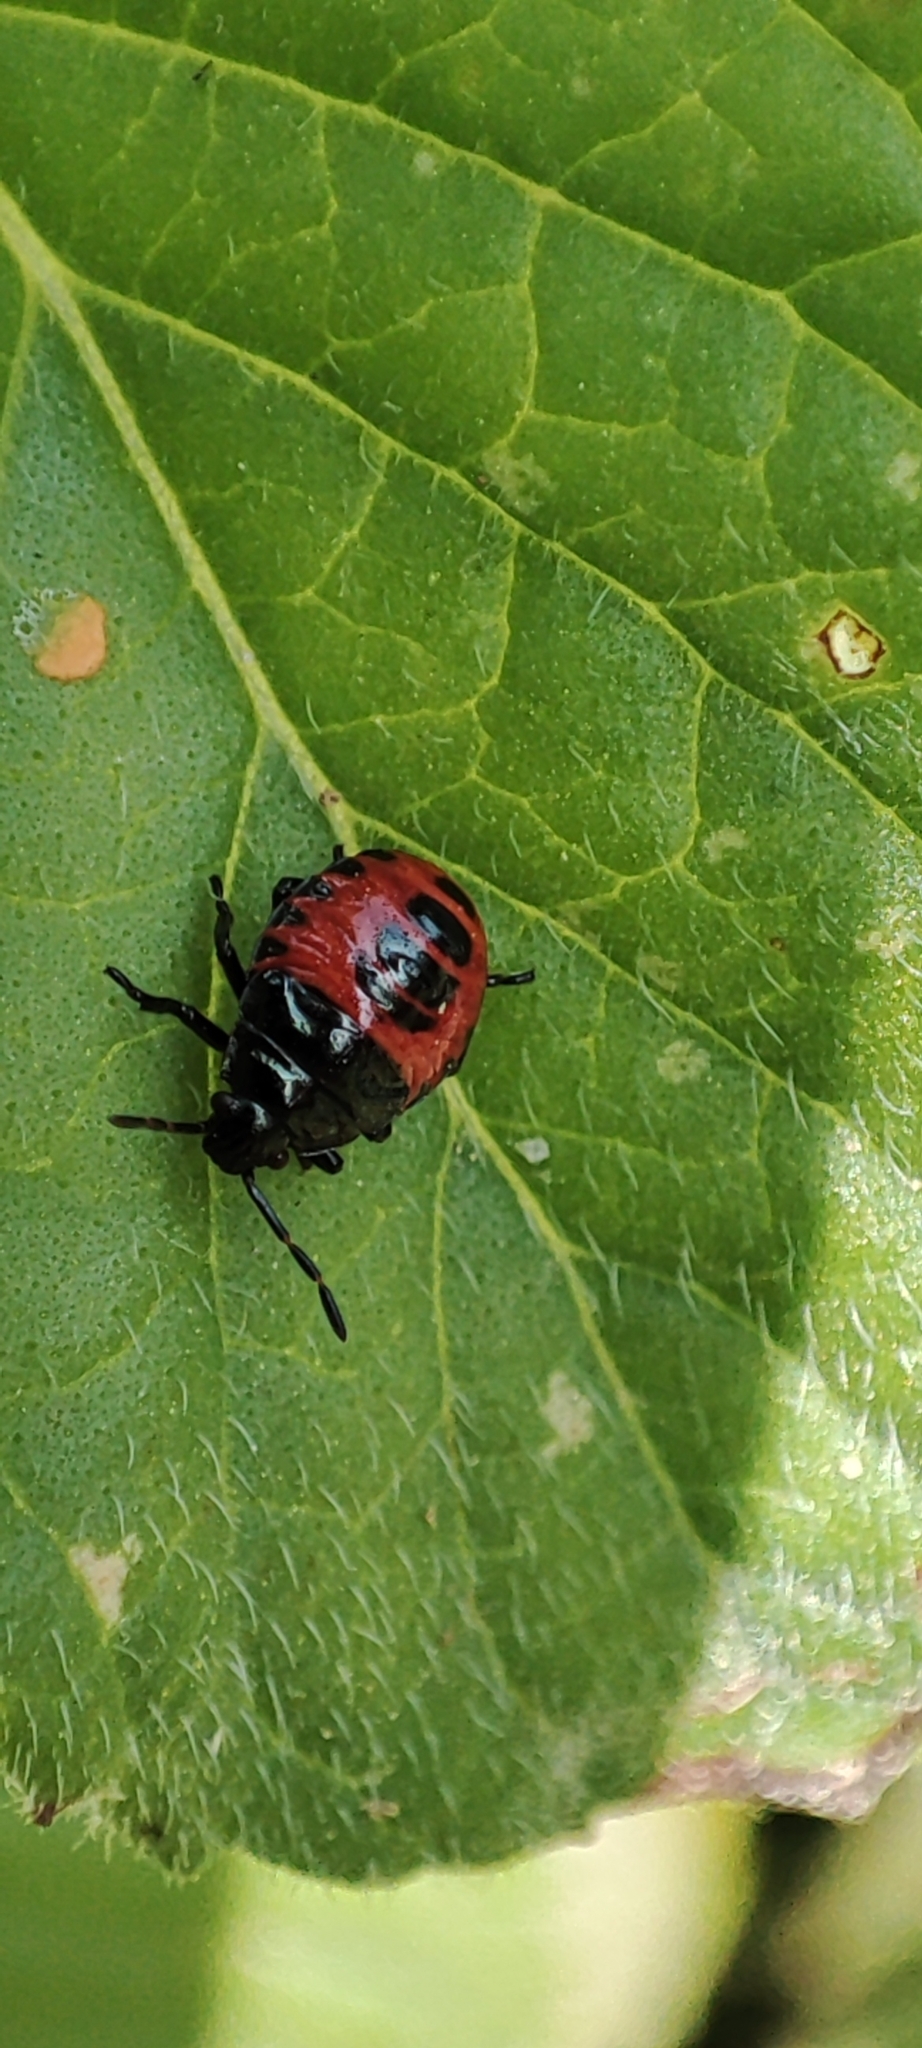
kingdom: Animalia
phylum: Arthropoda
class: Insecta
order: Hemiptera
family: Pentatomidae
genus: Zicrona
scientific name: Zicrona caerulea
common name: Blue shieldbug
